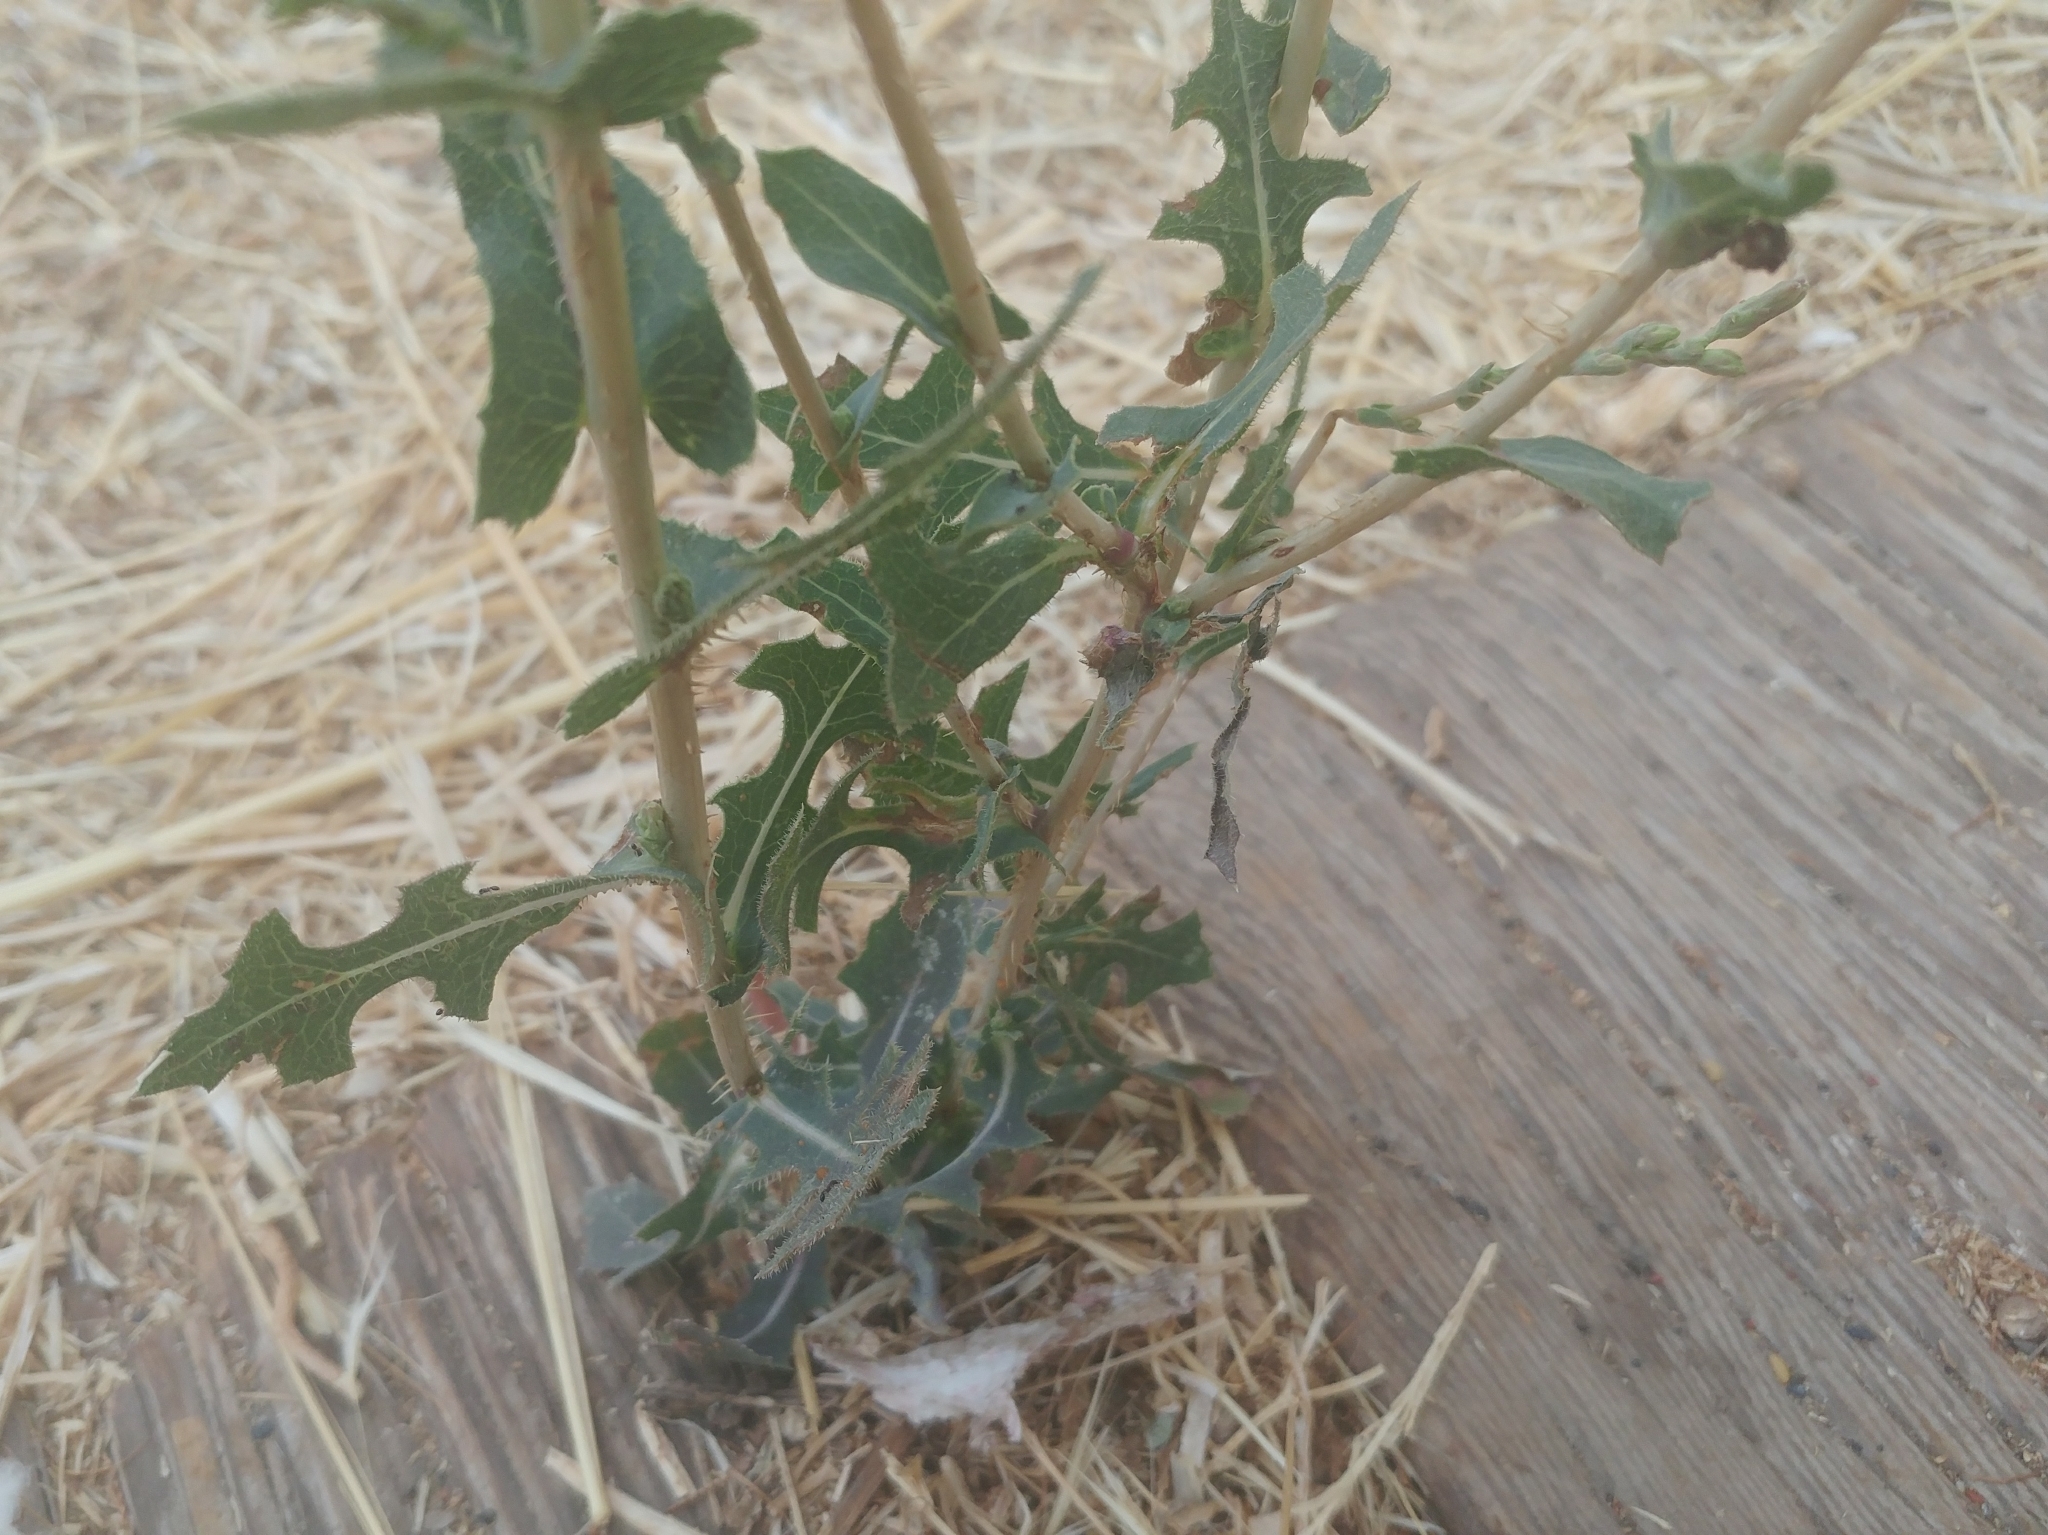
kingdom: Plantae
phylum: Tracheophyta
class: Magnoliopsida
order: Asterales
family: Asteraceae
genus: Lactuca
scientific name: Lactuca serriola
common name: Prickly lettuce
